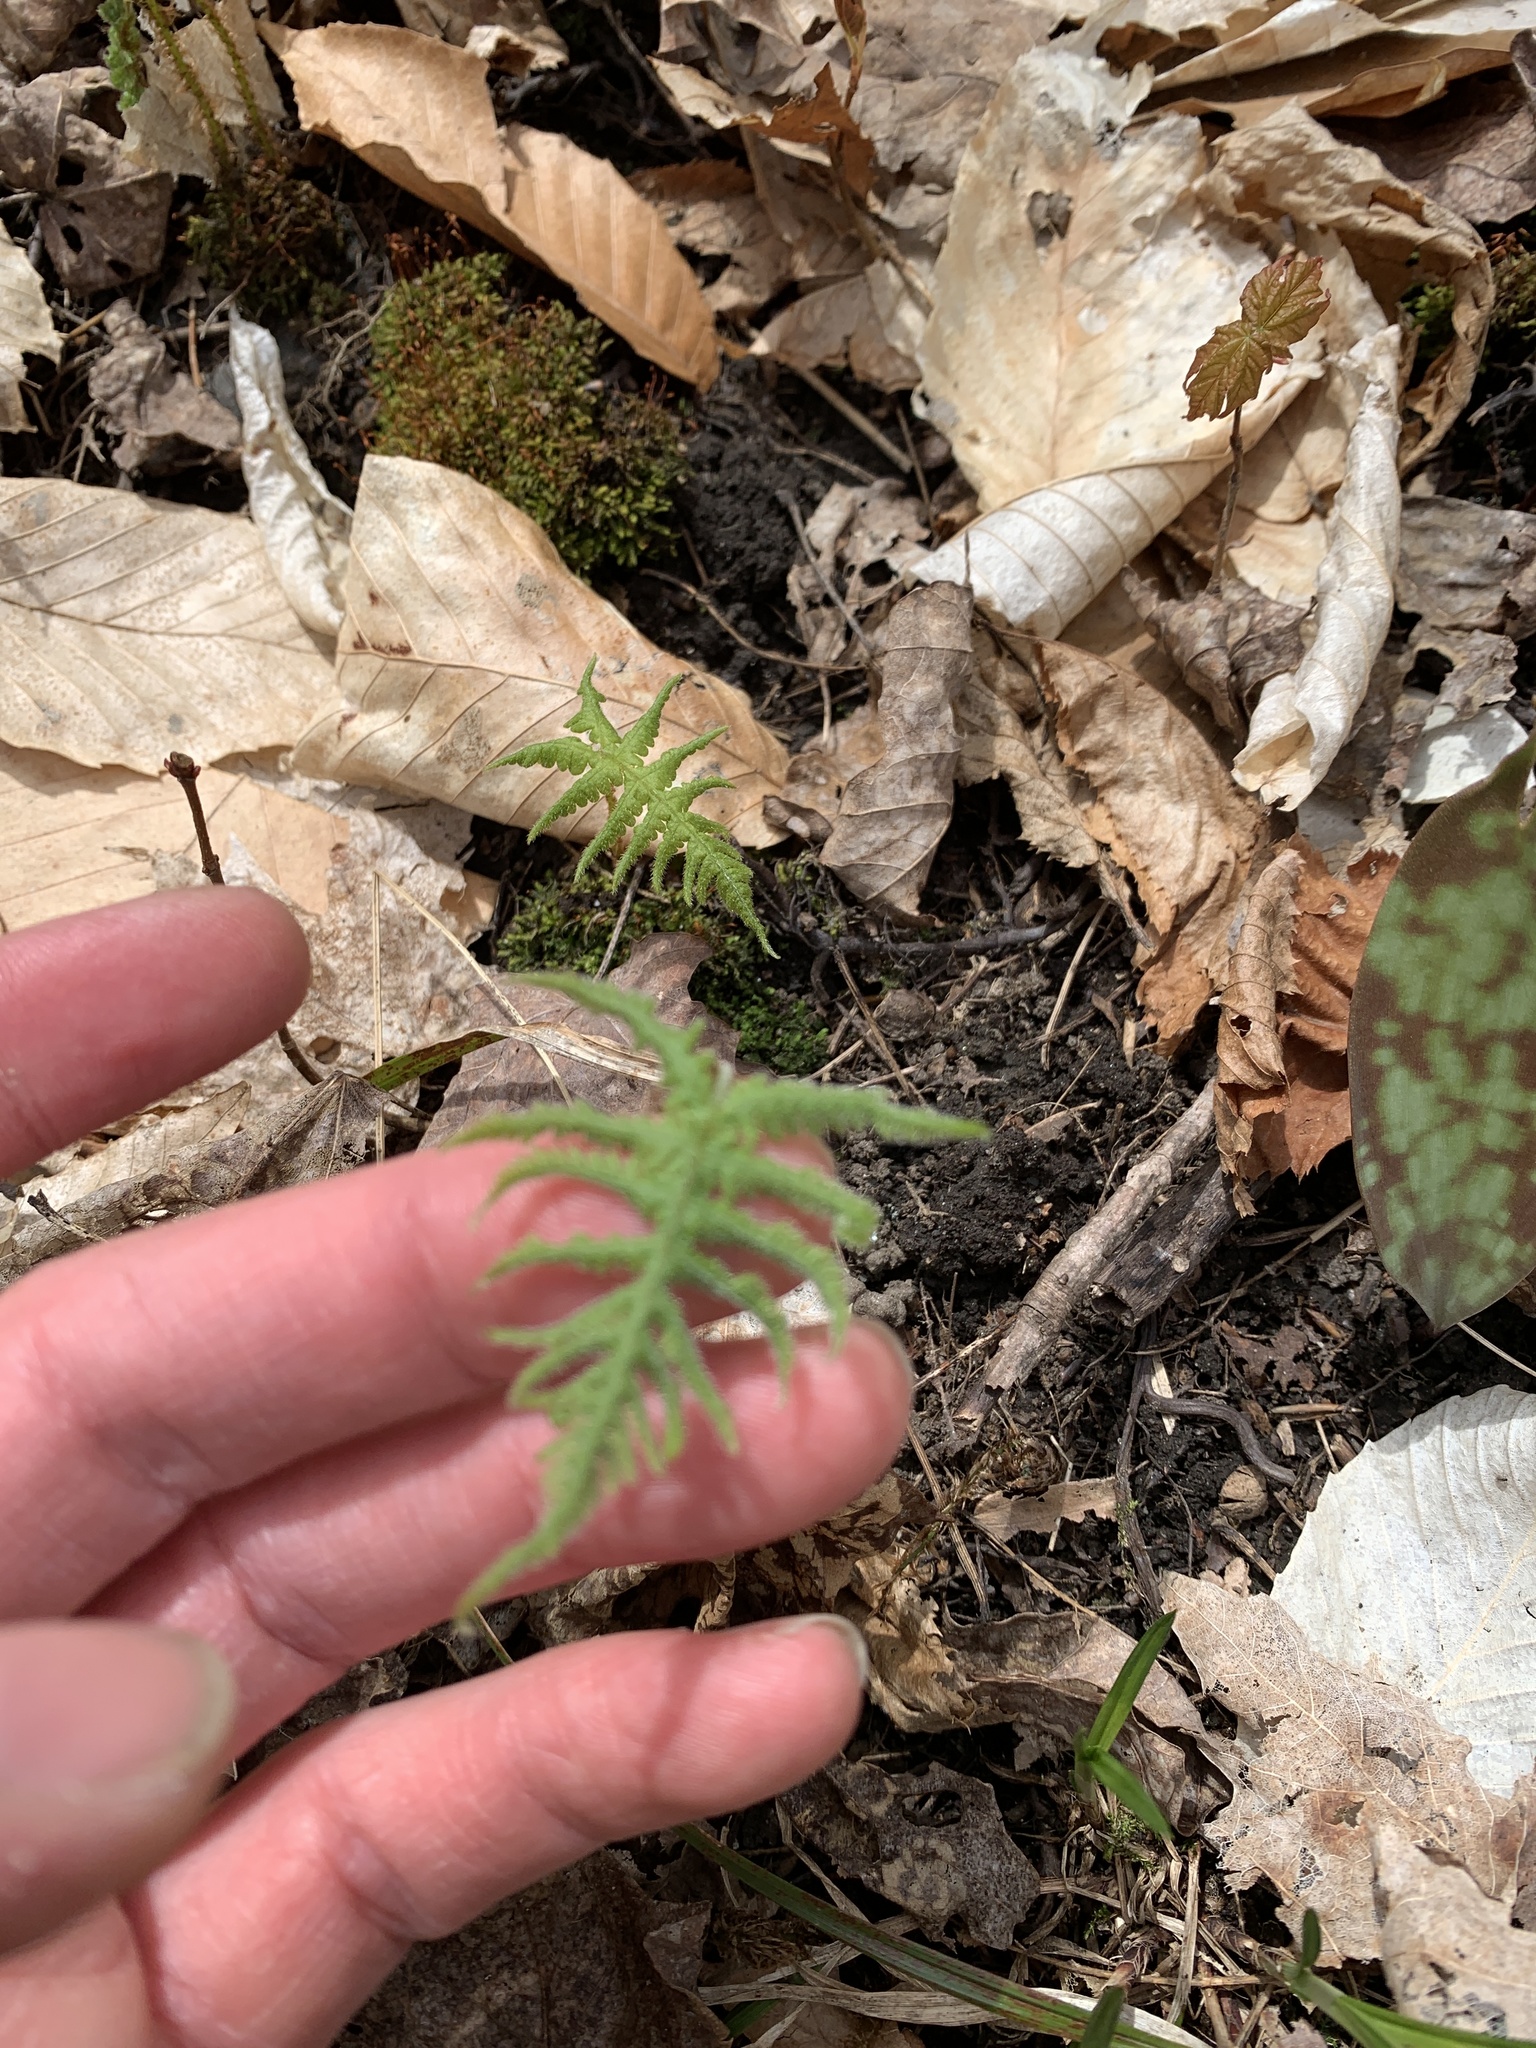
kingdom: Plantae
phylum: Tracheophyta
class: Polypodiopsida
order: Polypodiales
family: Thelypteridaceae
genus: Phegopteris
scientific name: Phegopteris connectilis
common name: Beech fern
